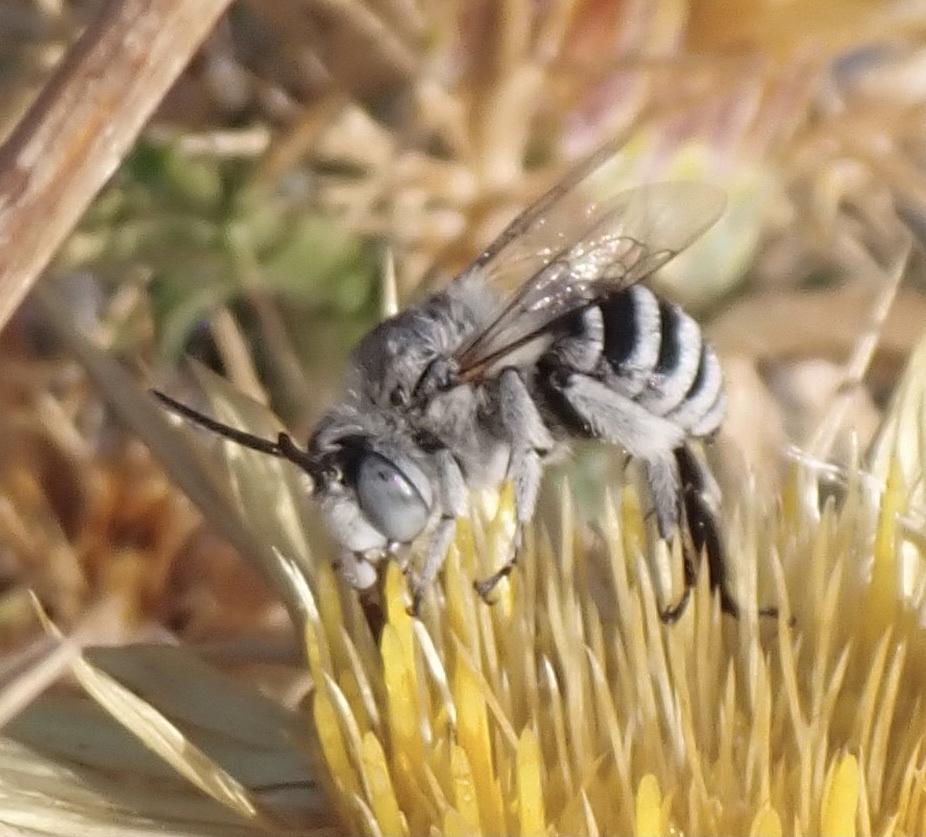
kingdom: Animalia
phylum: Arthropoda
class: Insecta
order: Hymenoptera
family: Apidae
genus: Amegilla
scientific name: Amegilla albigena
